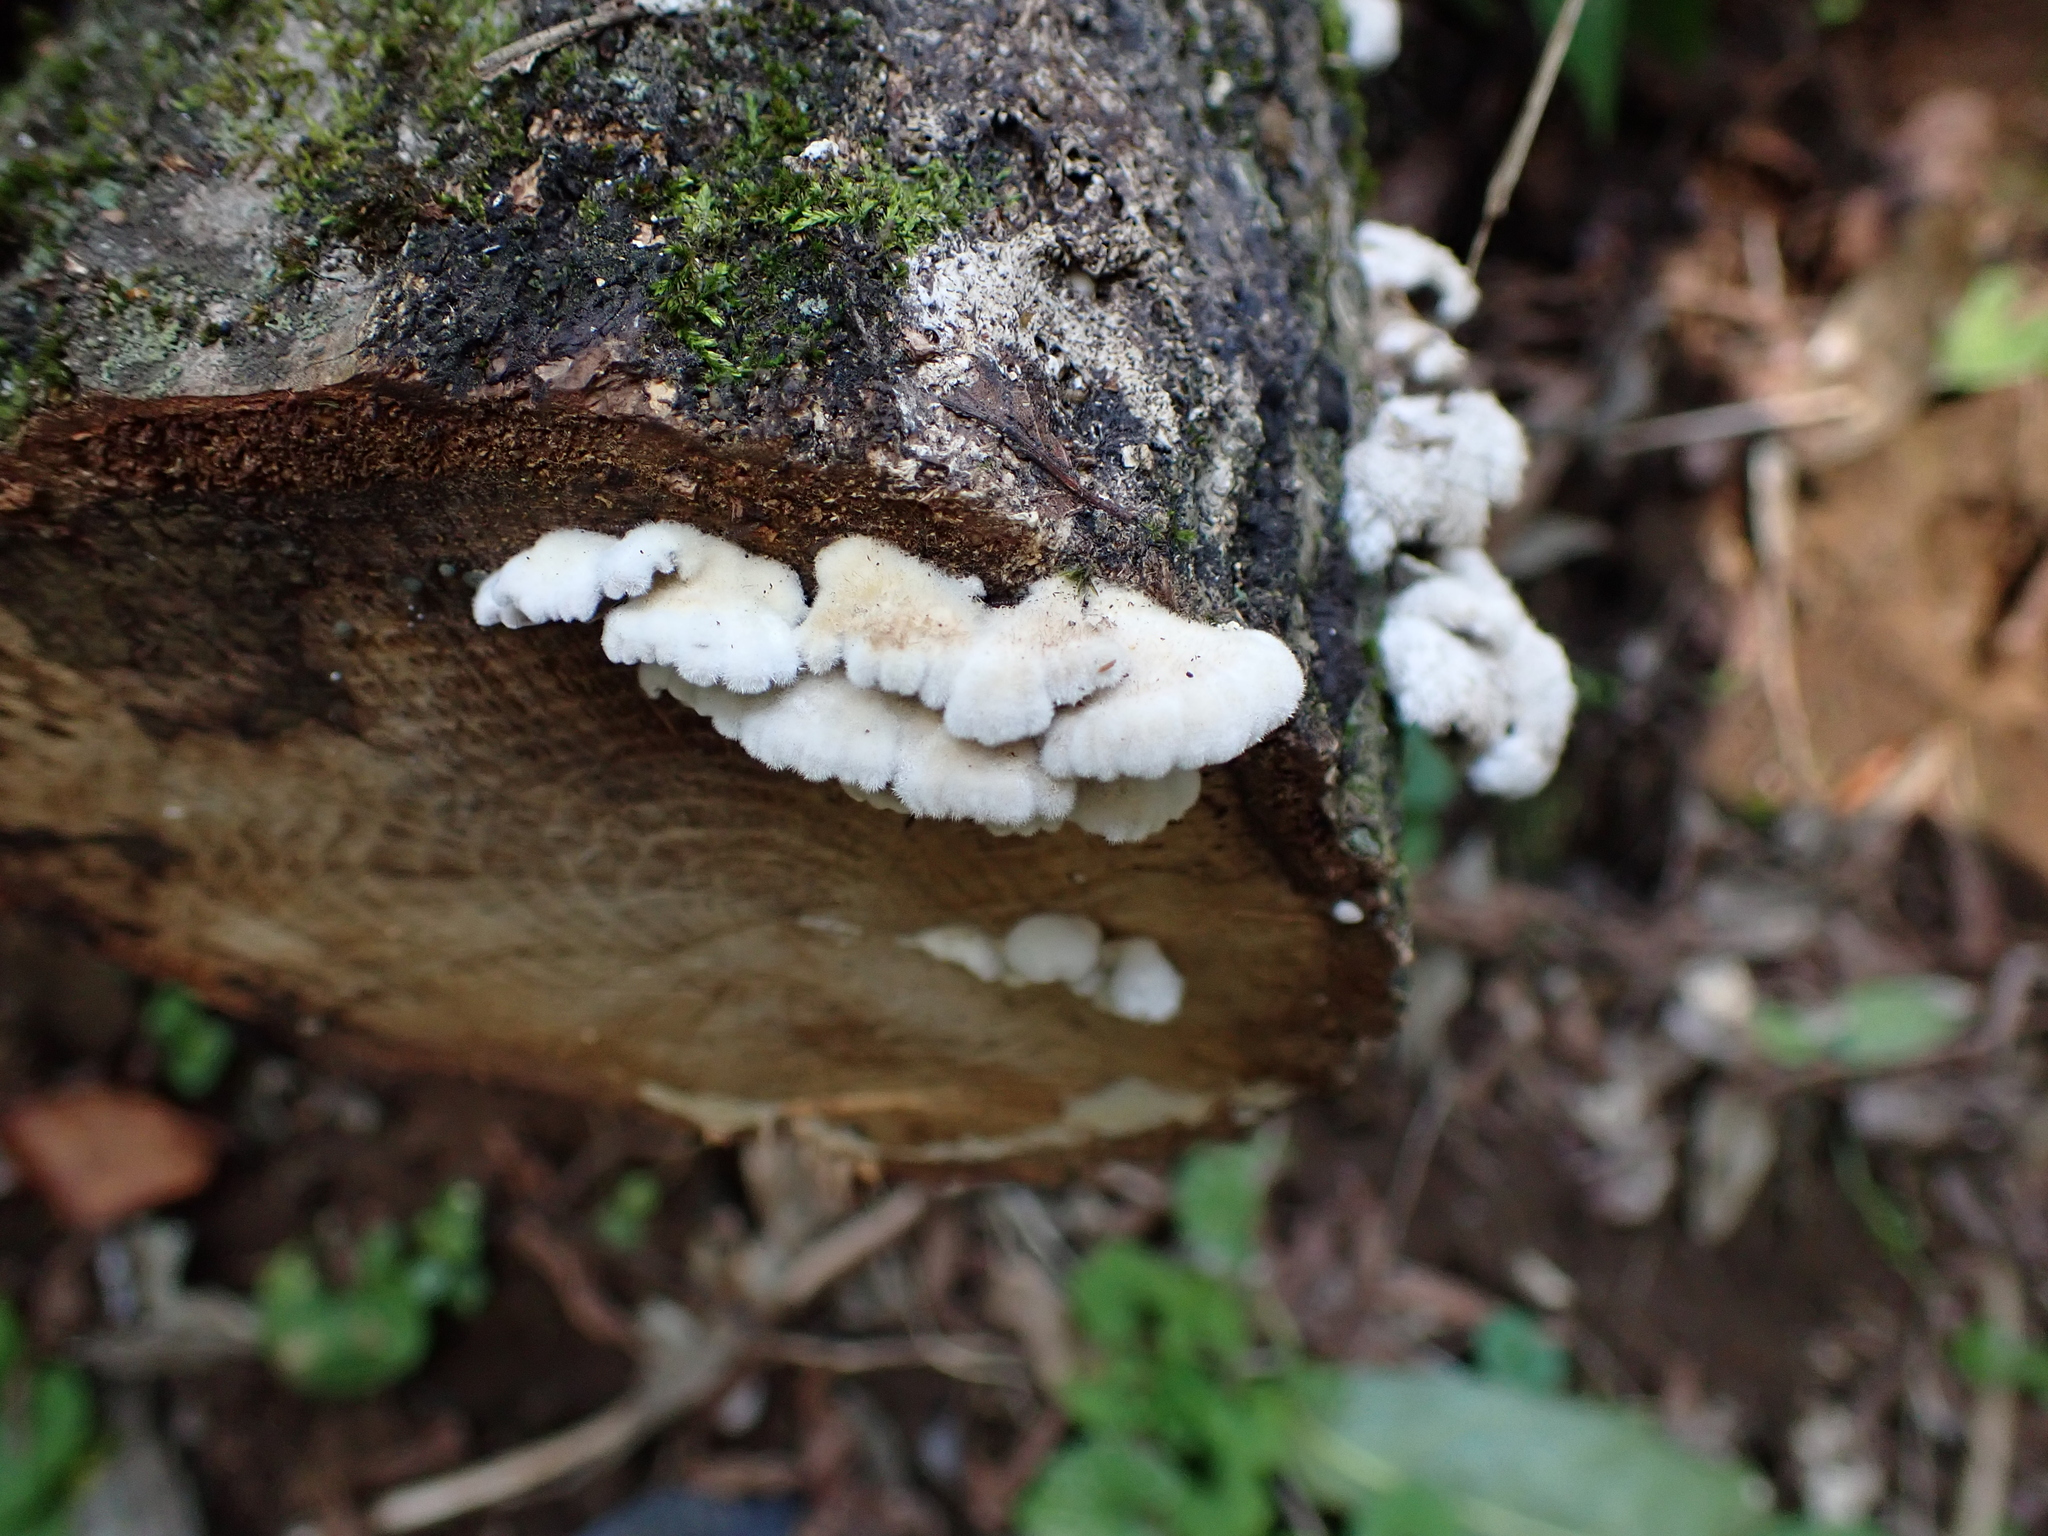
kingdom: Fungi
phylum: Basidiomycota
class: Agaricomycetes
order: Agaricales
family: Schizophyllaceae
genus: Schizophyllum
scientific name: Schizophyllum commune
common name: Common porecrust
